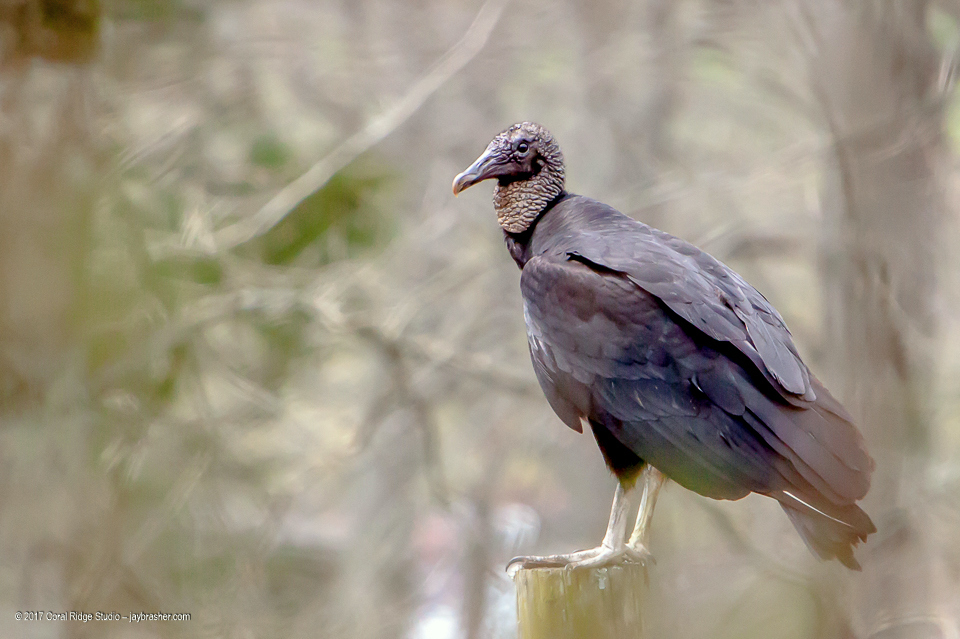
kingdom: Animalia
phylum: Chordata
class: Aves
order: Accipitriformes
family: Cathartidae
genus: Coragyps
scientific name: Coragyps atratus
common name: Black vulture
